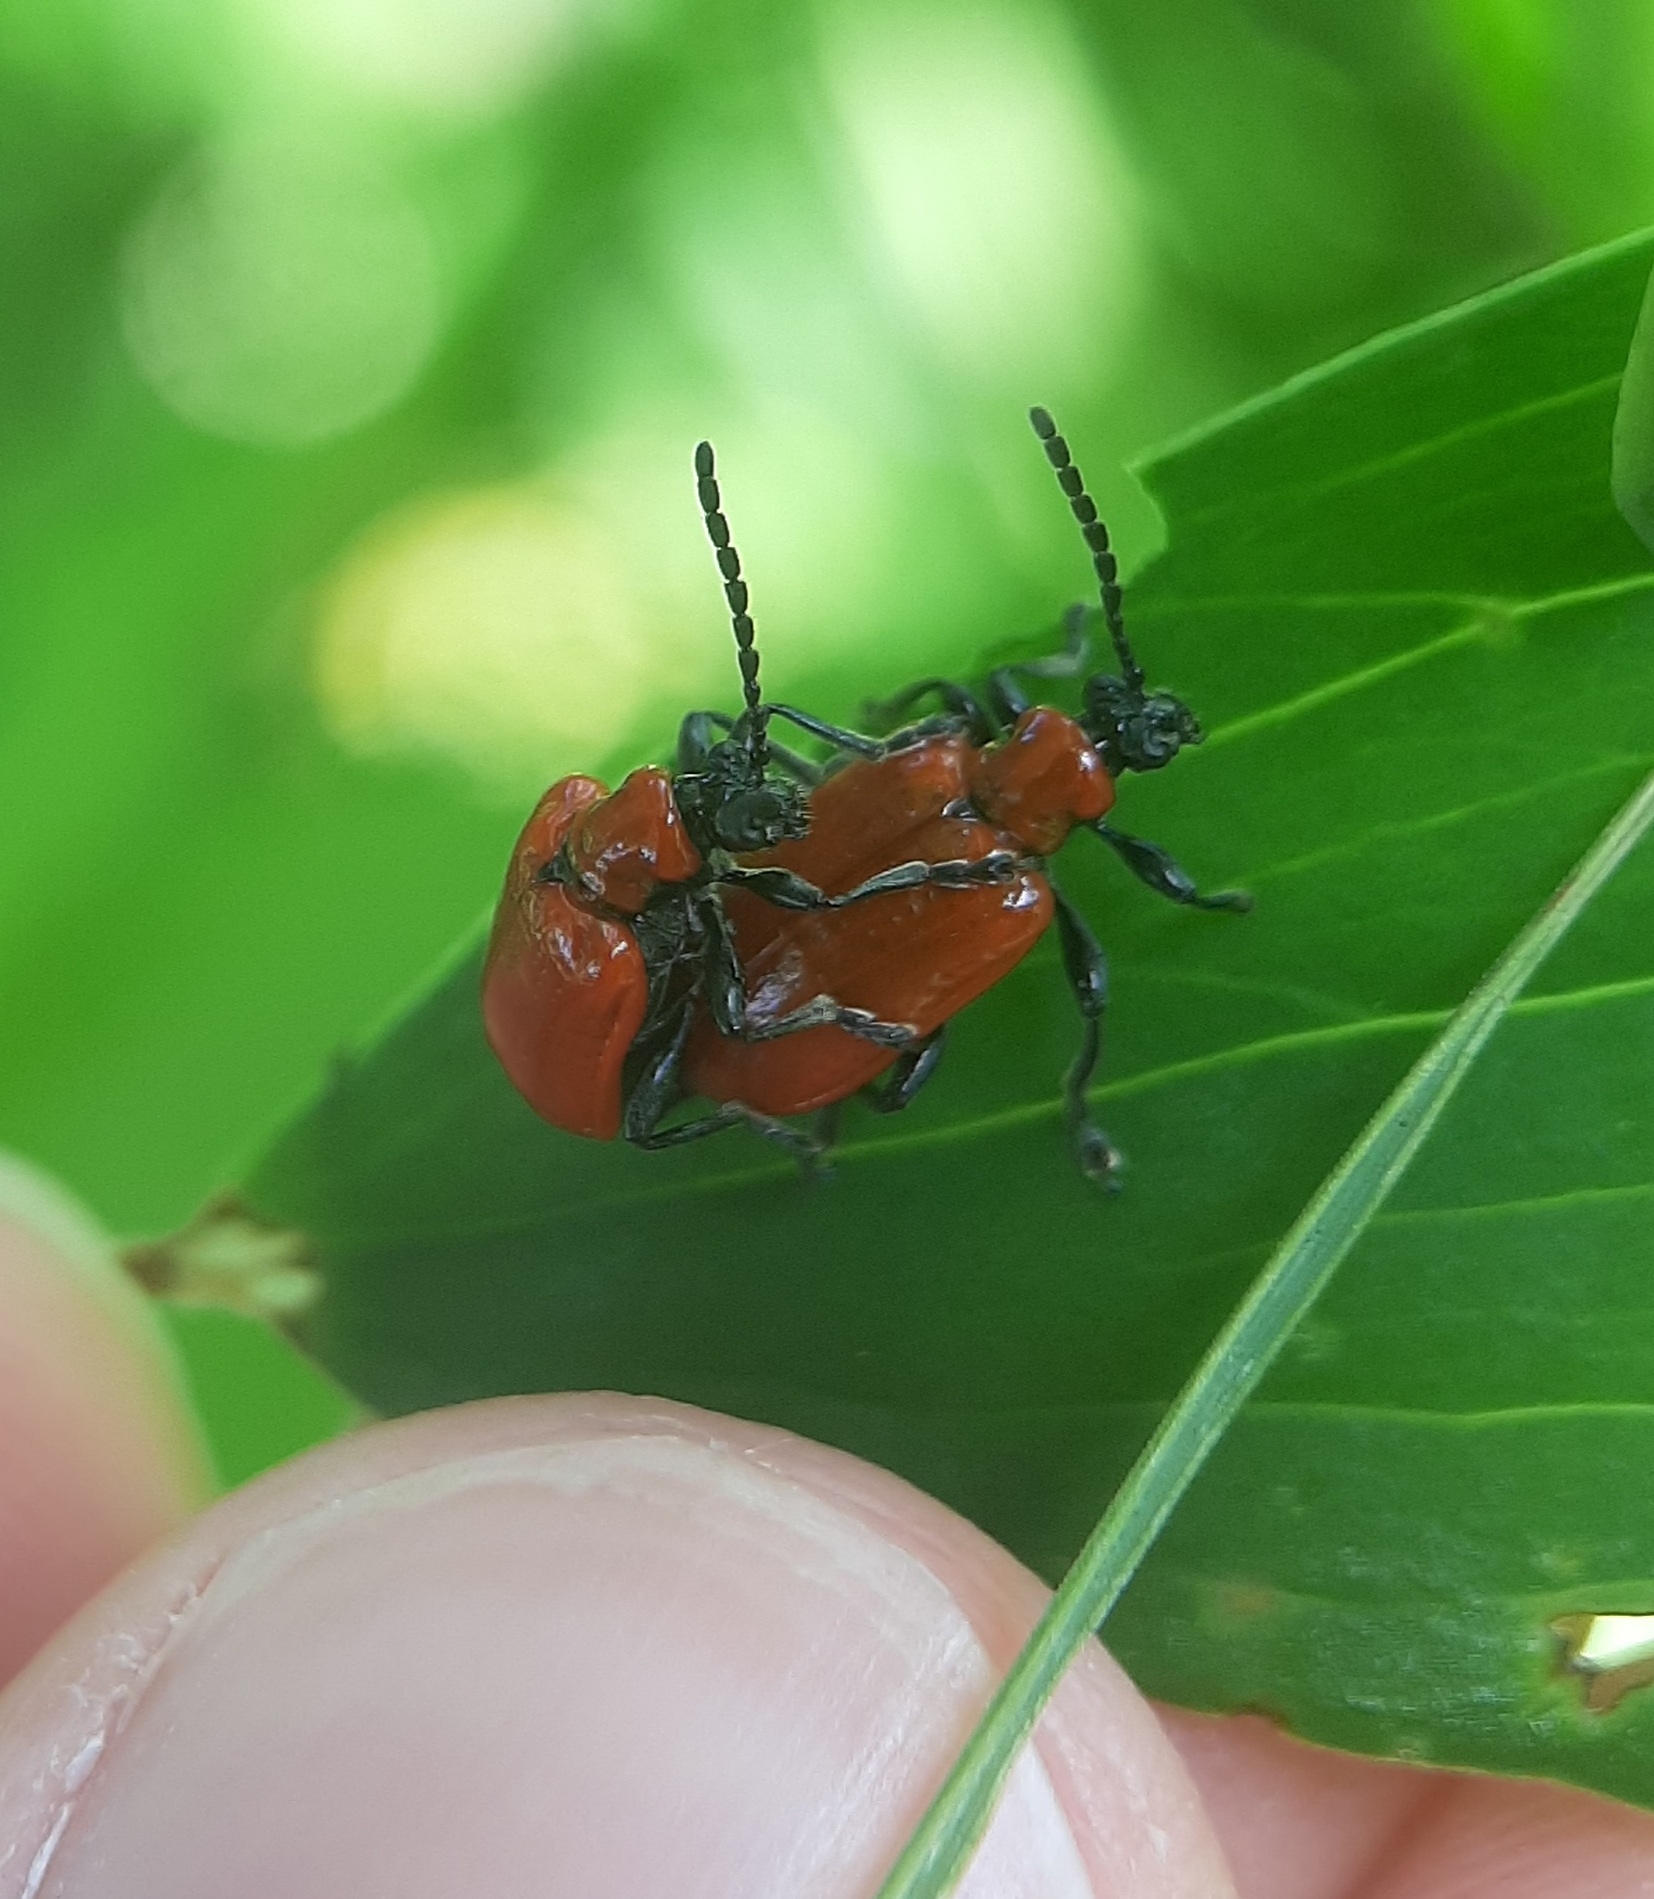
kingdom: Animalia
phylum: Arthropoda
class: Insecta
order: Coleoptera
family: Chrysomelidae
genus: Lilioceris
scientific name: Lilioceris lilii
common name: Lily beetle
